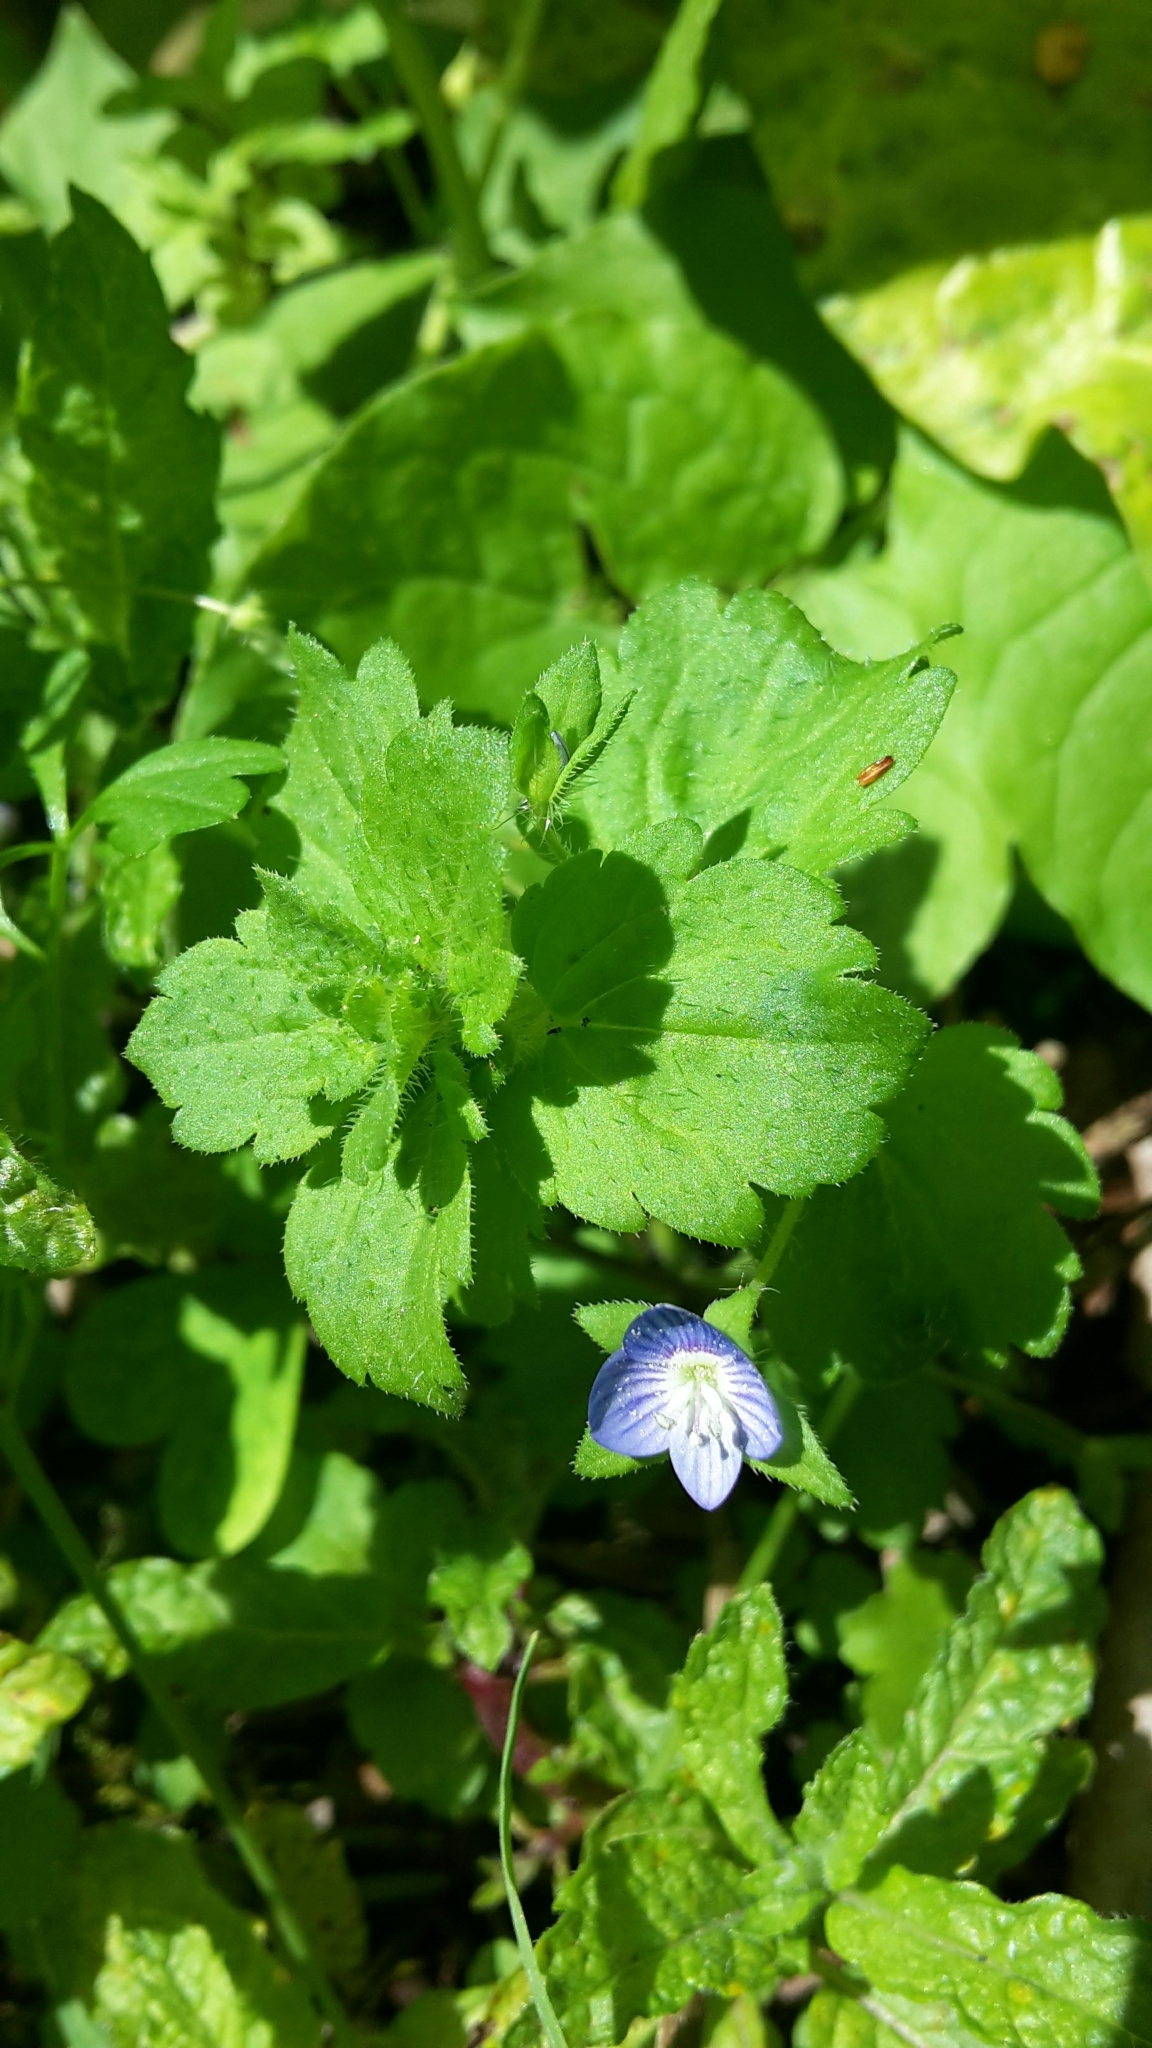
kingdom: Plantae
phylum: Tracheophyta
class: Magnoliopsida
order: Lamiales
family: Plantaginaceae
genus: Veronica
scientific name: Veronica persica
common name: Common field-speedwell
